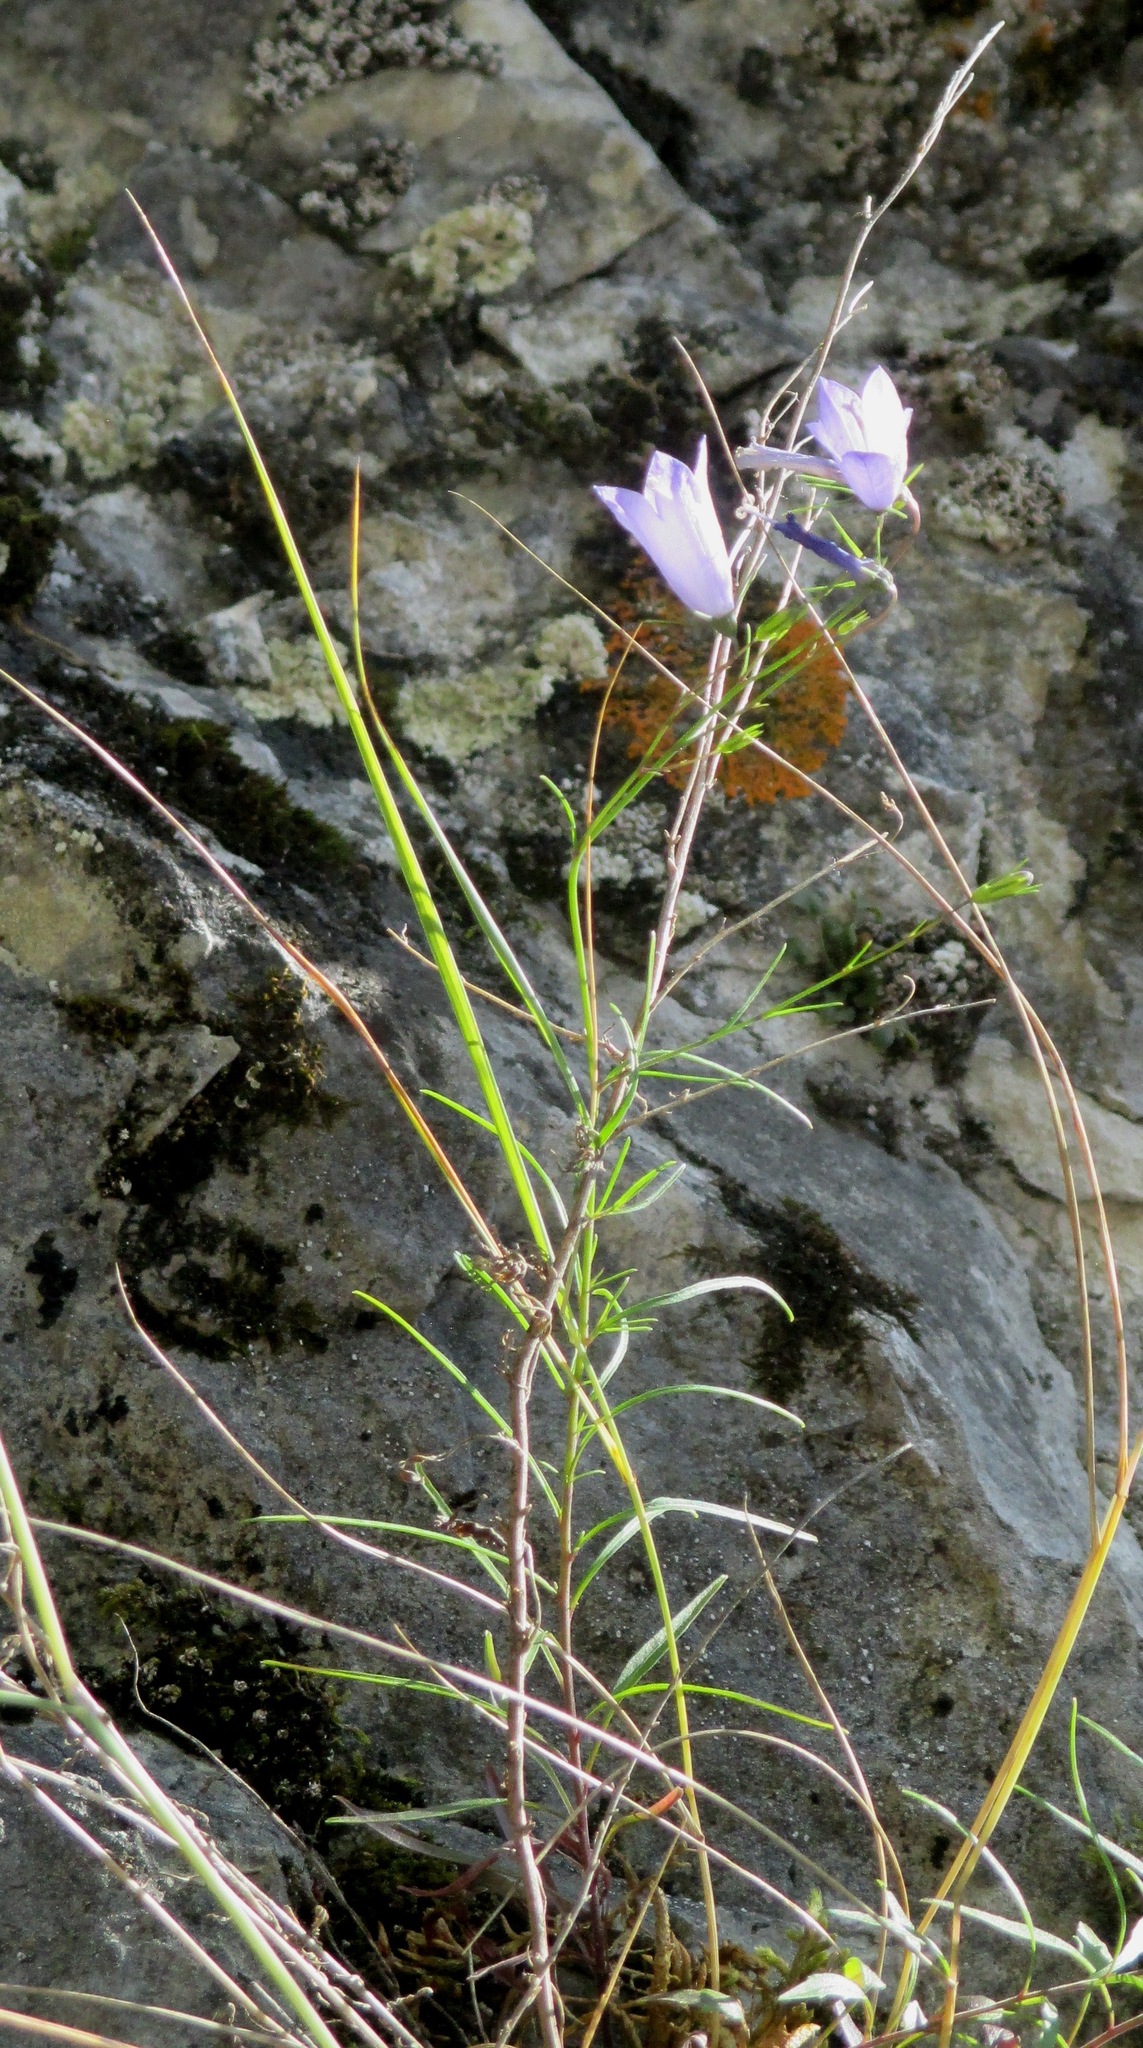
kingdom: Plantae
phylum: Tracheophyta
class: Magnoliopsida
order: Asterales
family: Campanulaceae
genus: Campanula
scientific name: Campanula rotundifolia
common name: Harebell
